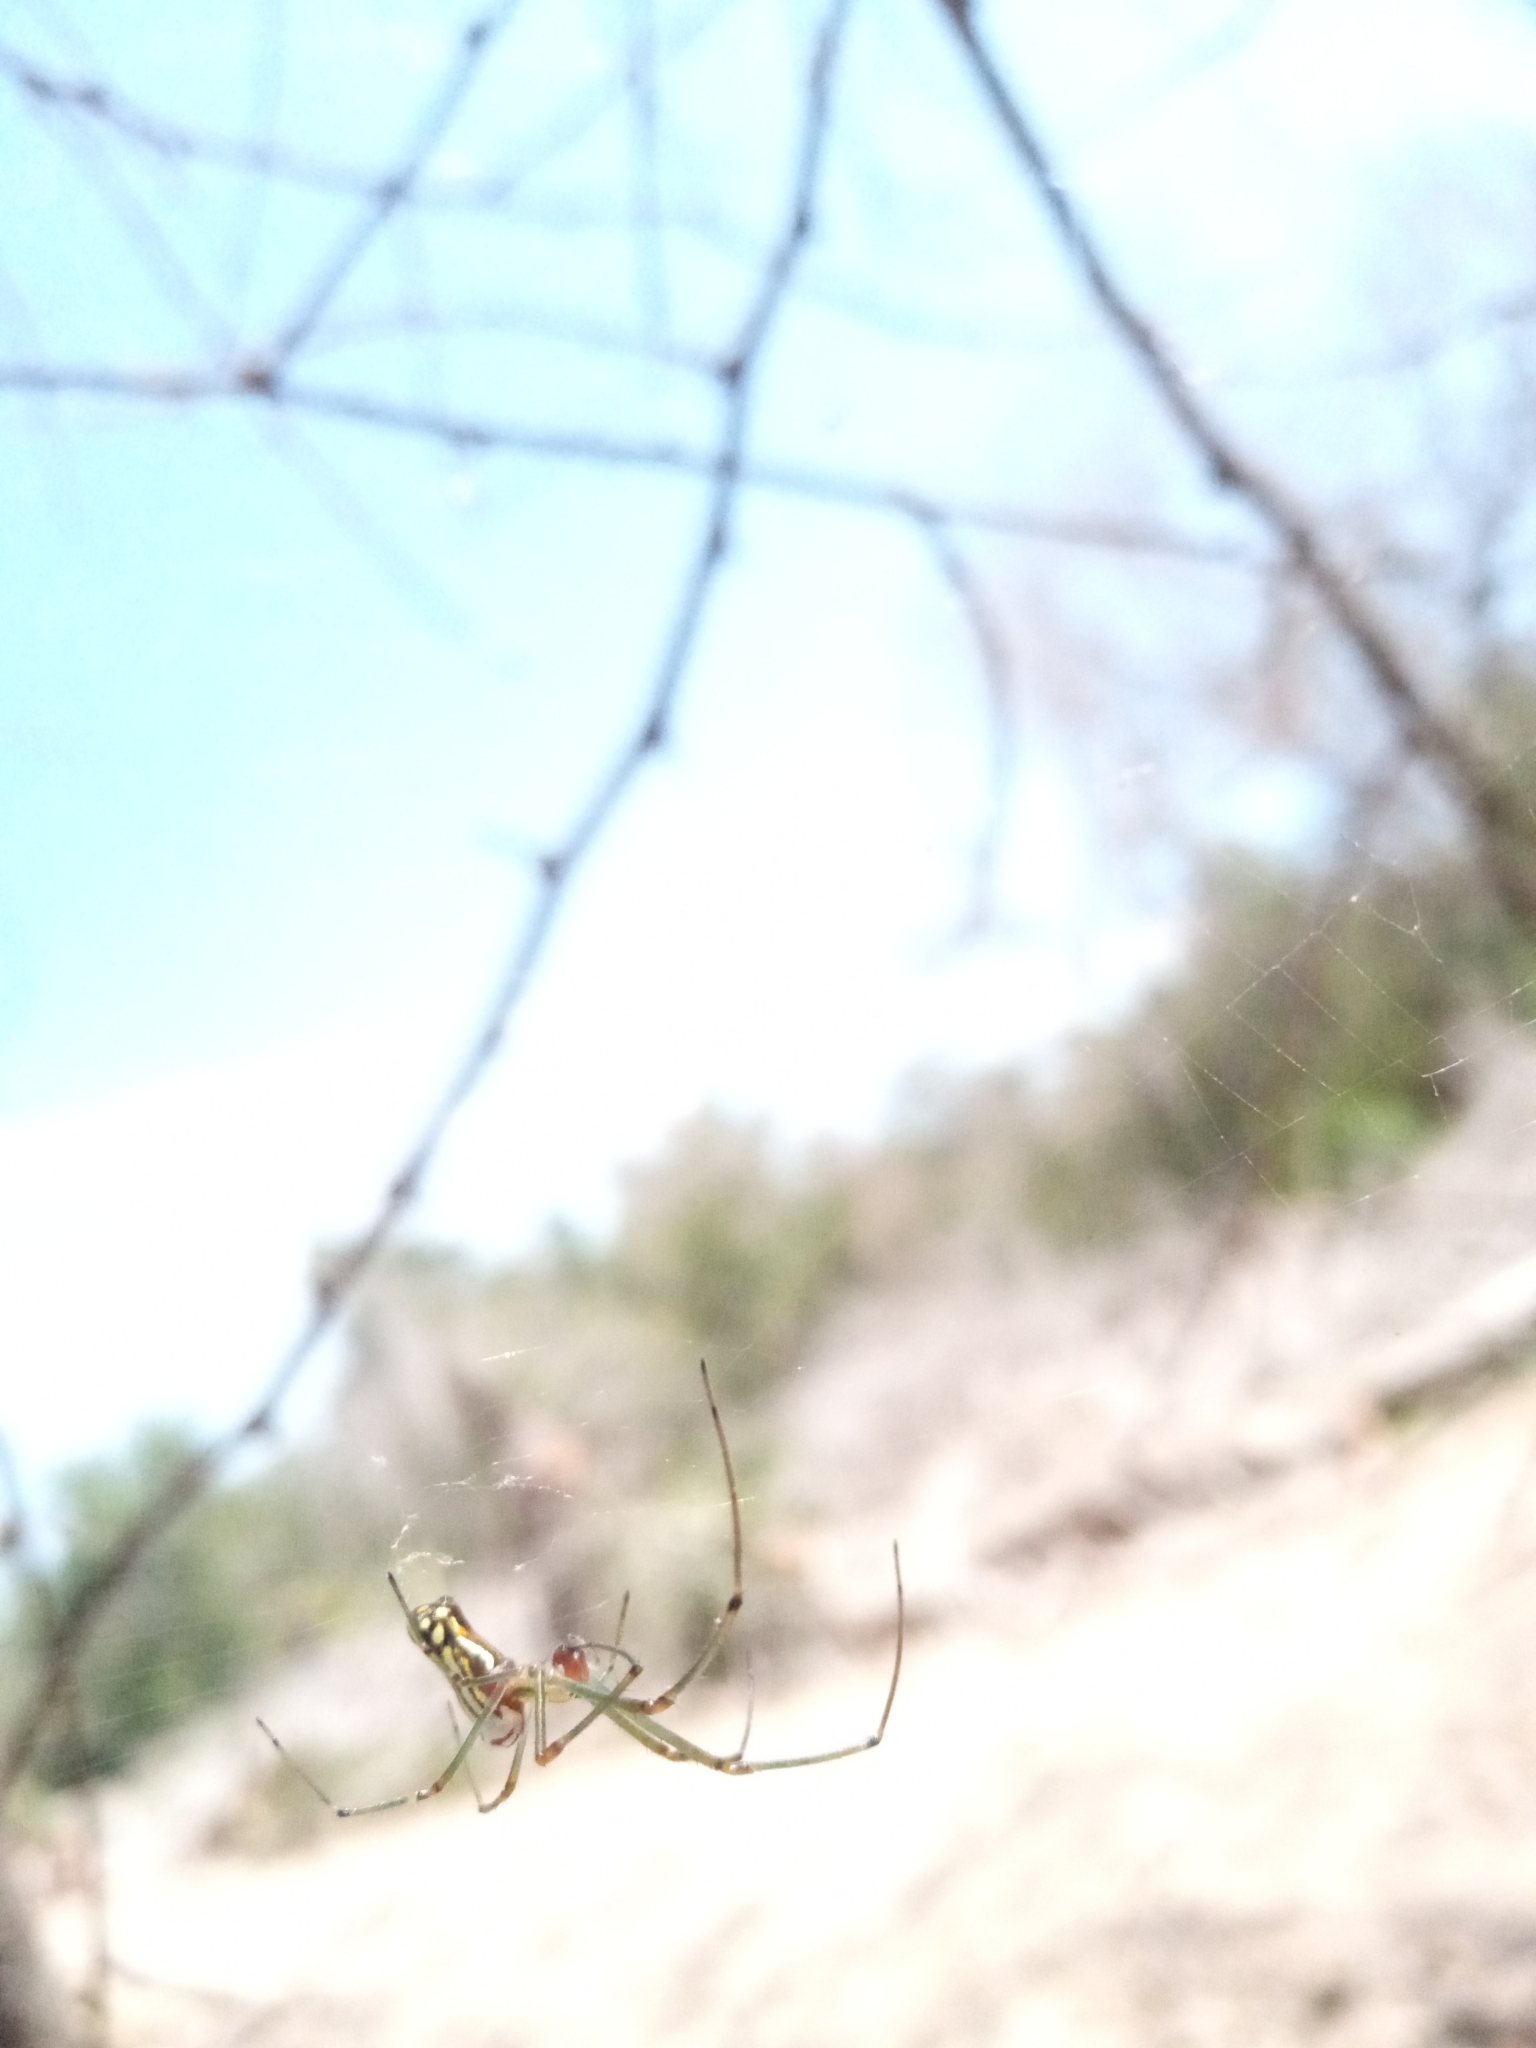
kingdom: Animalia
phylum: Arthropoda
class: Arachnida
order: Araneae
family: Tetragnathidae
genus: Leucauge
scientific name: Leucauge argyra
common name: Longjawed orb weavers
